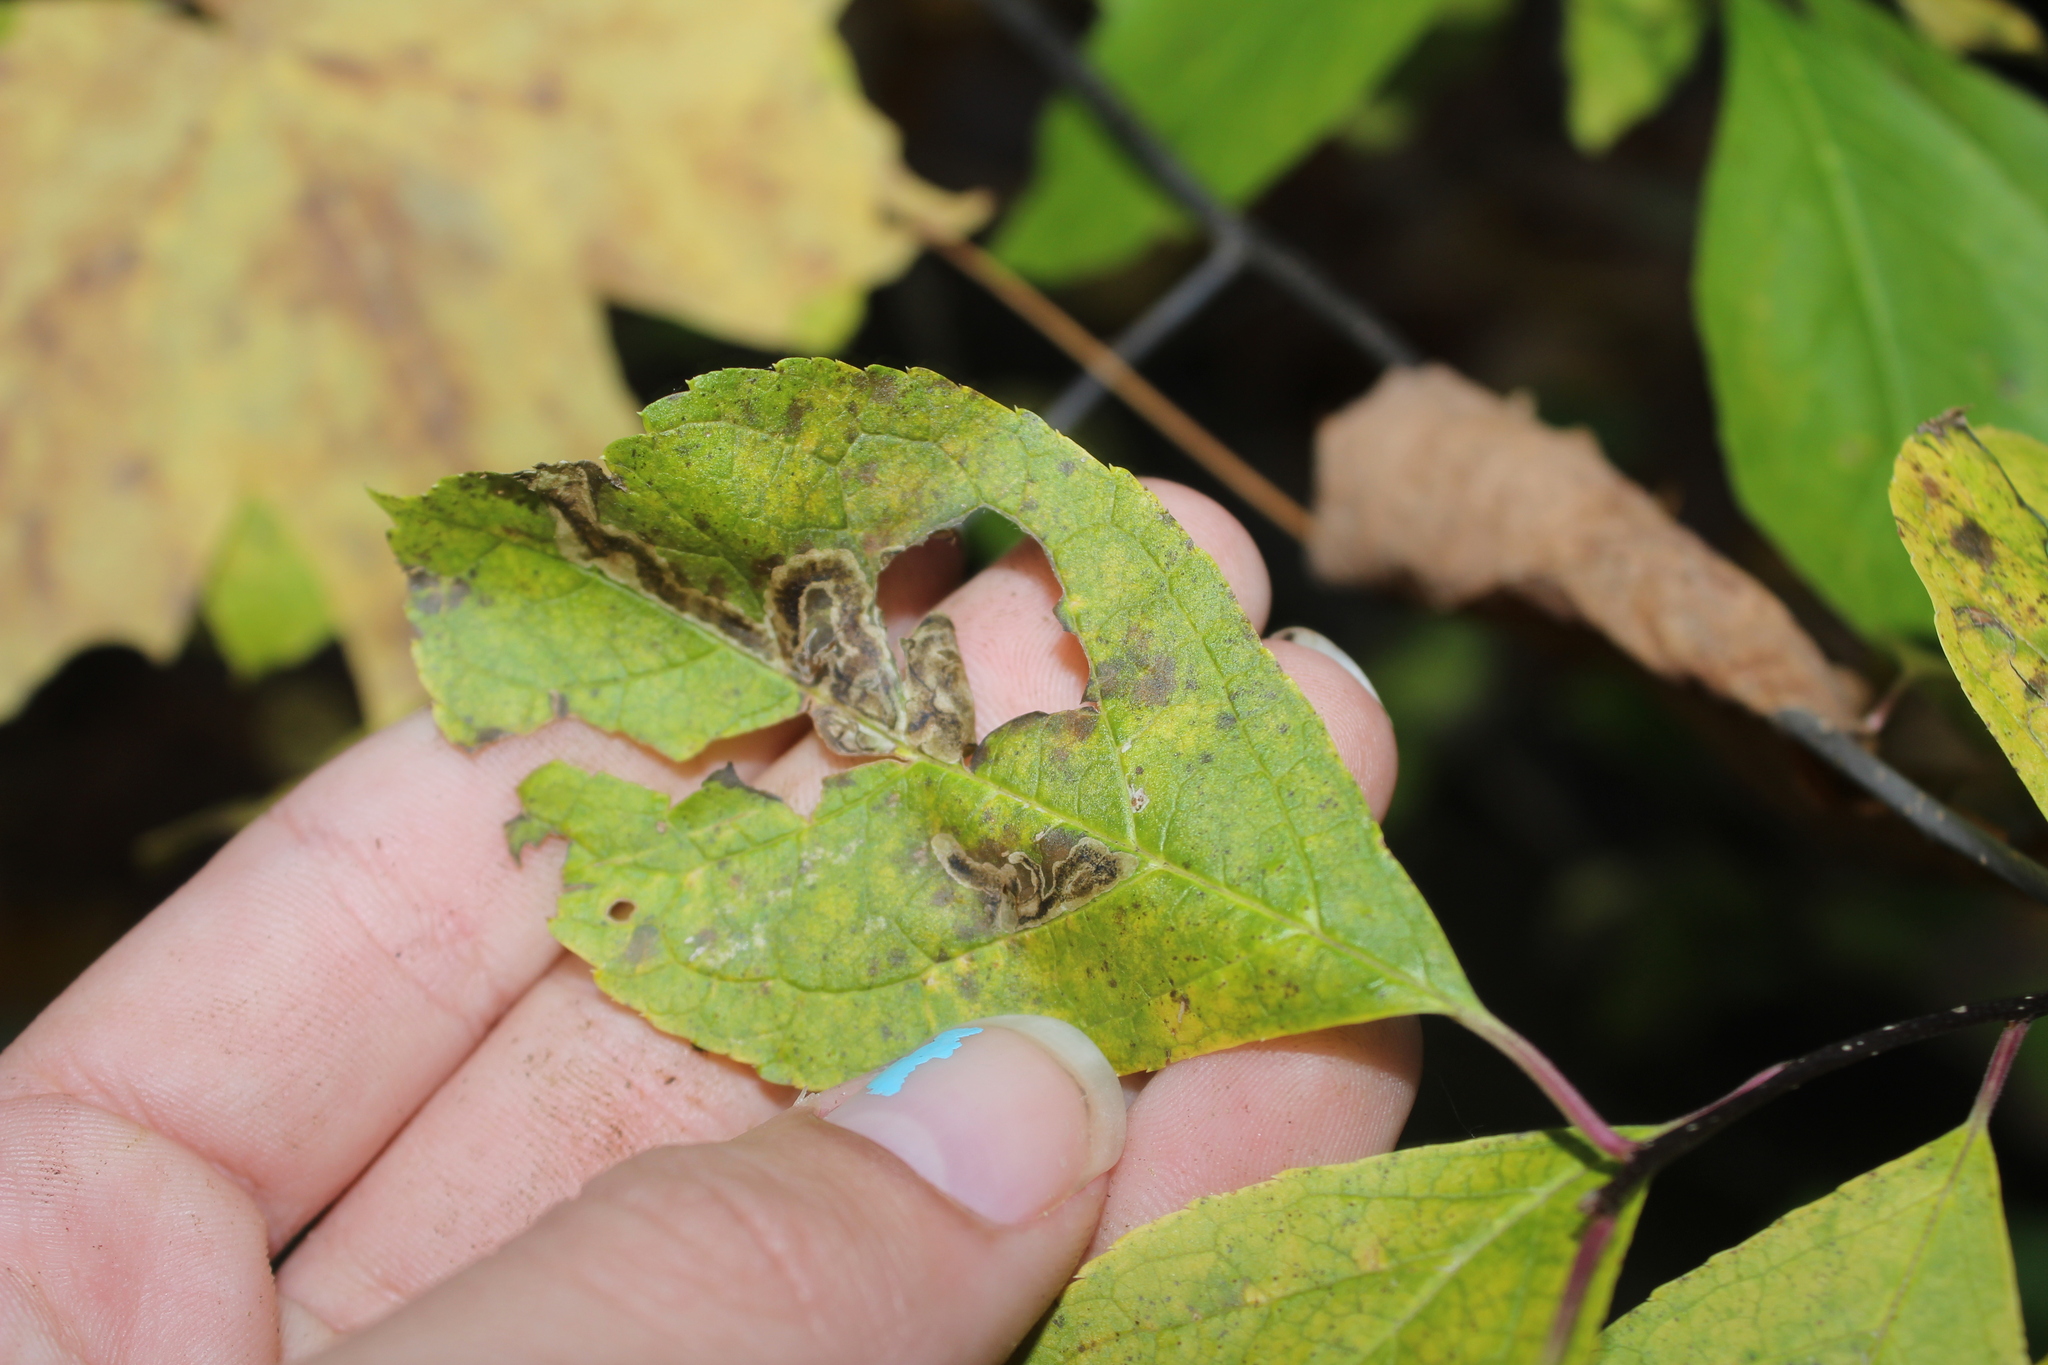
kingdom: Animalia
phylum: Arthropoda
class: Insecta
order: Diptera
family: Agromyzidae
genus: Phytomyza
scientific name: Phytomyza
